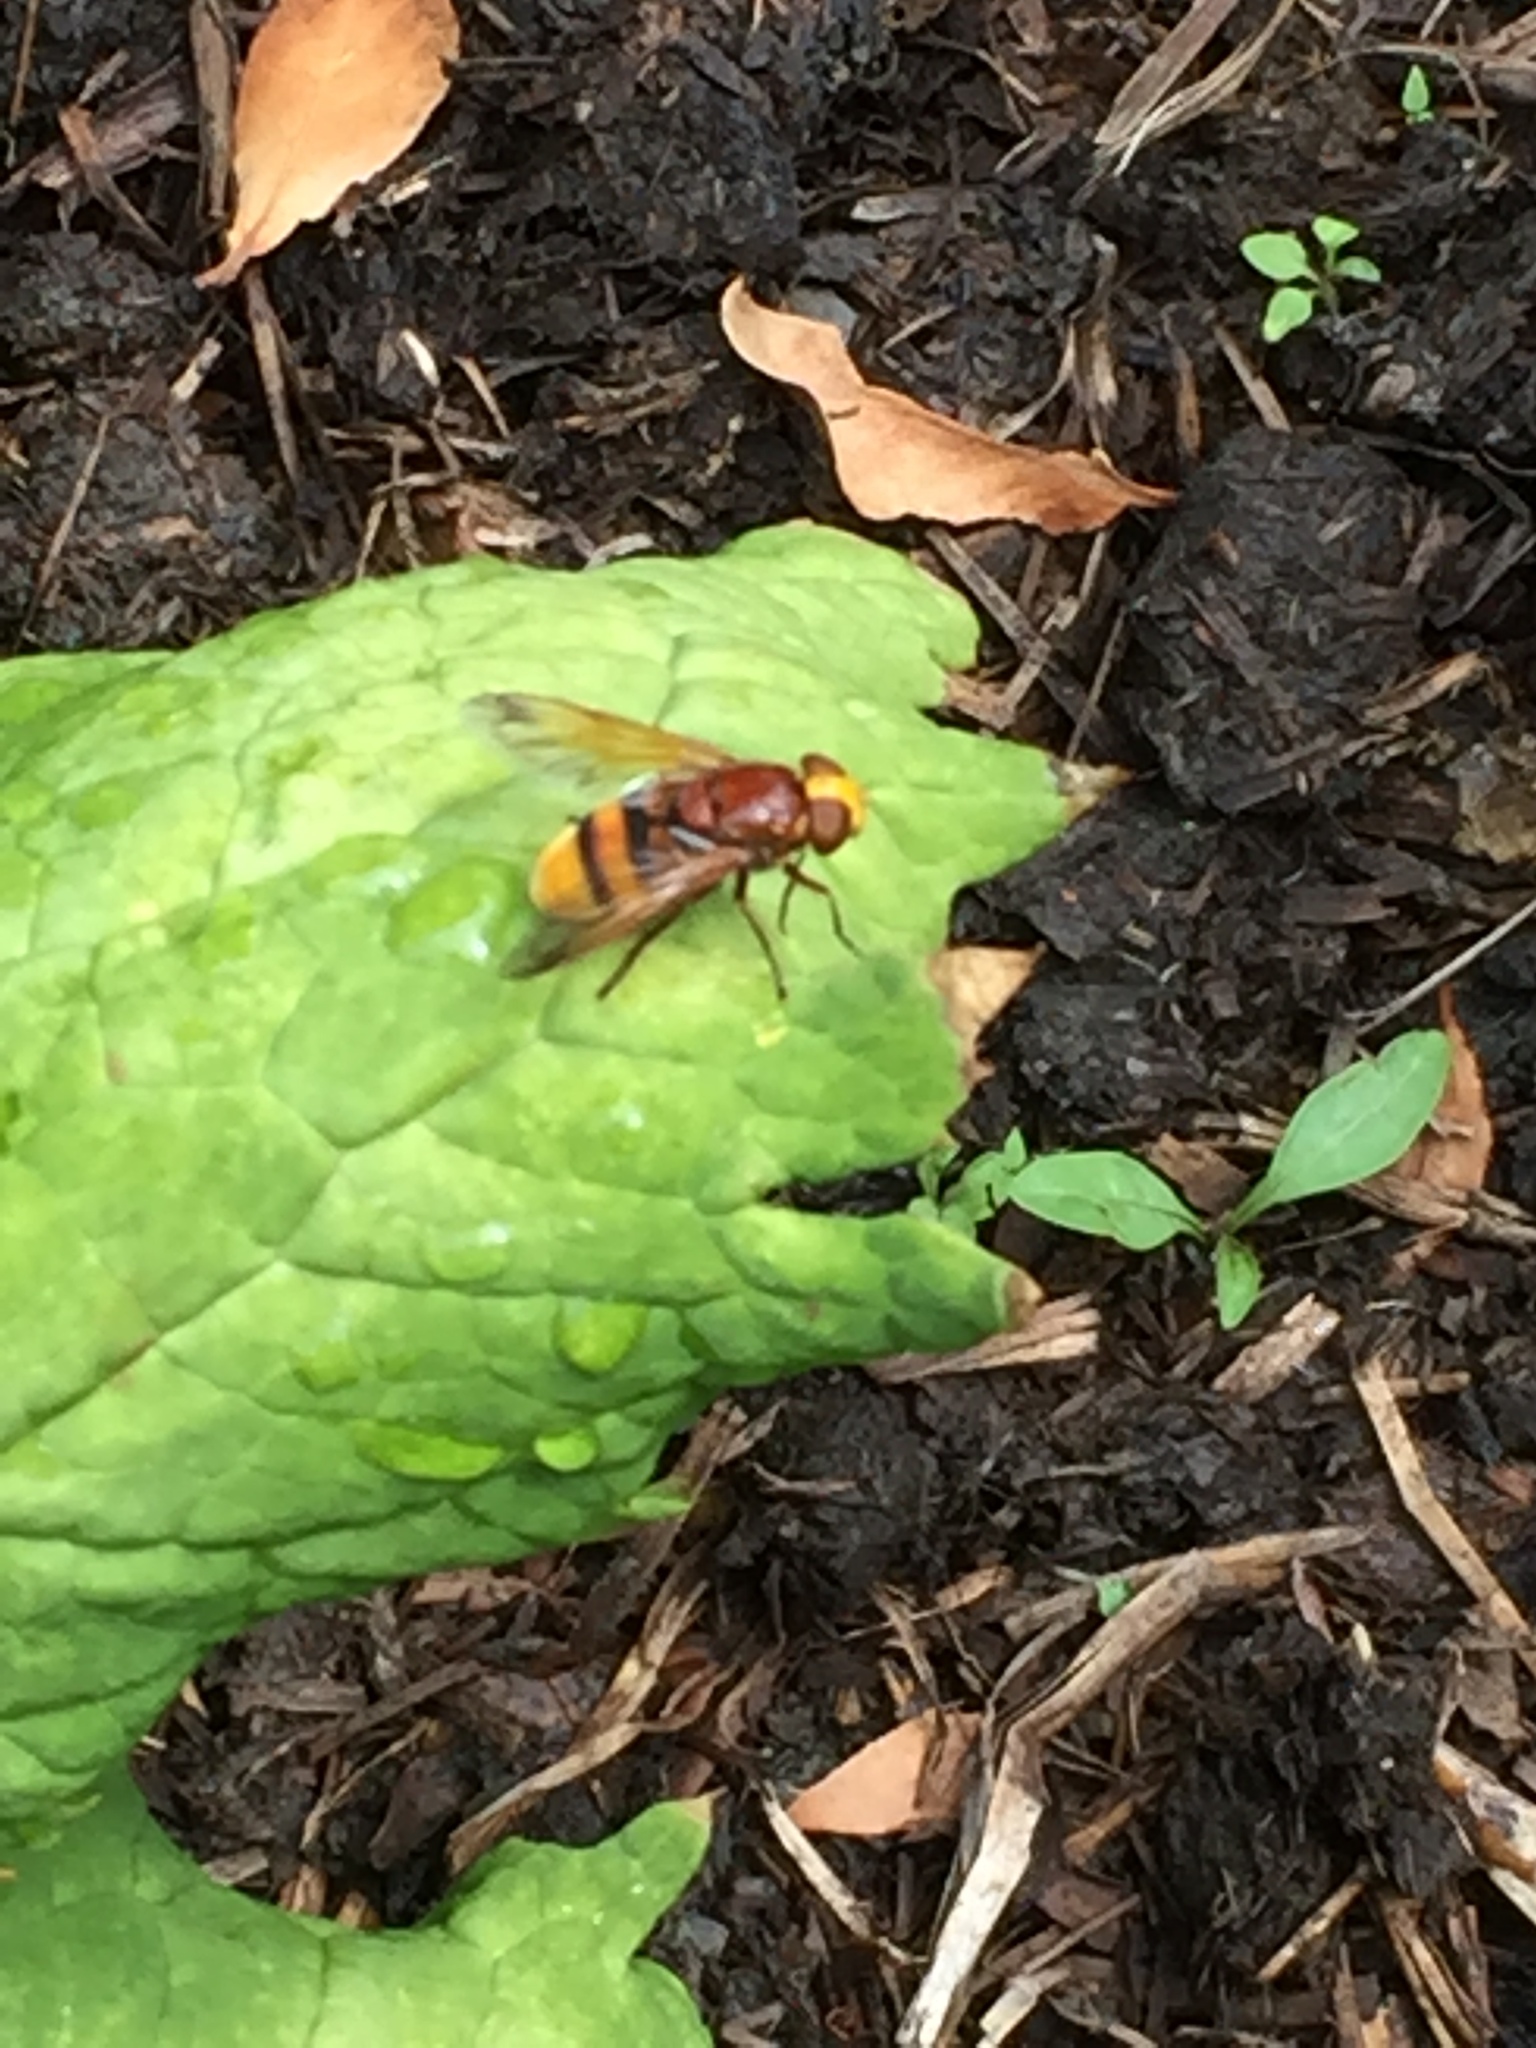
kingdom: Animalia
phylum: Arthropoda
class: Insecta
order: Diptera
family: Syrphidae
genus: Volucella
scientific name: Volucella zonaria
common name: Hornet hoverfly
